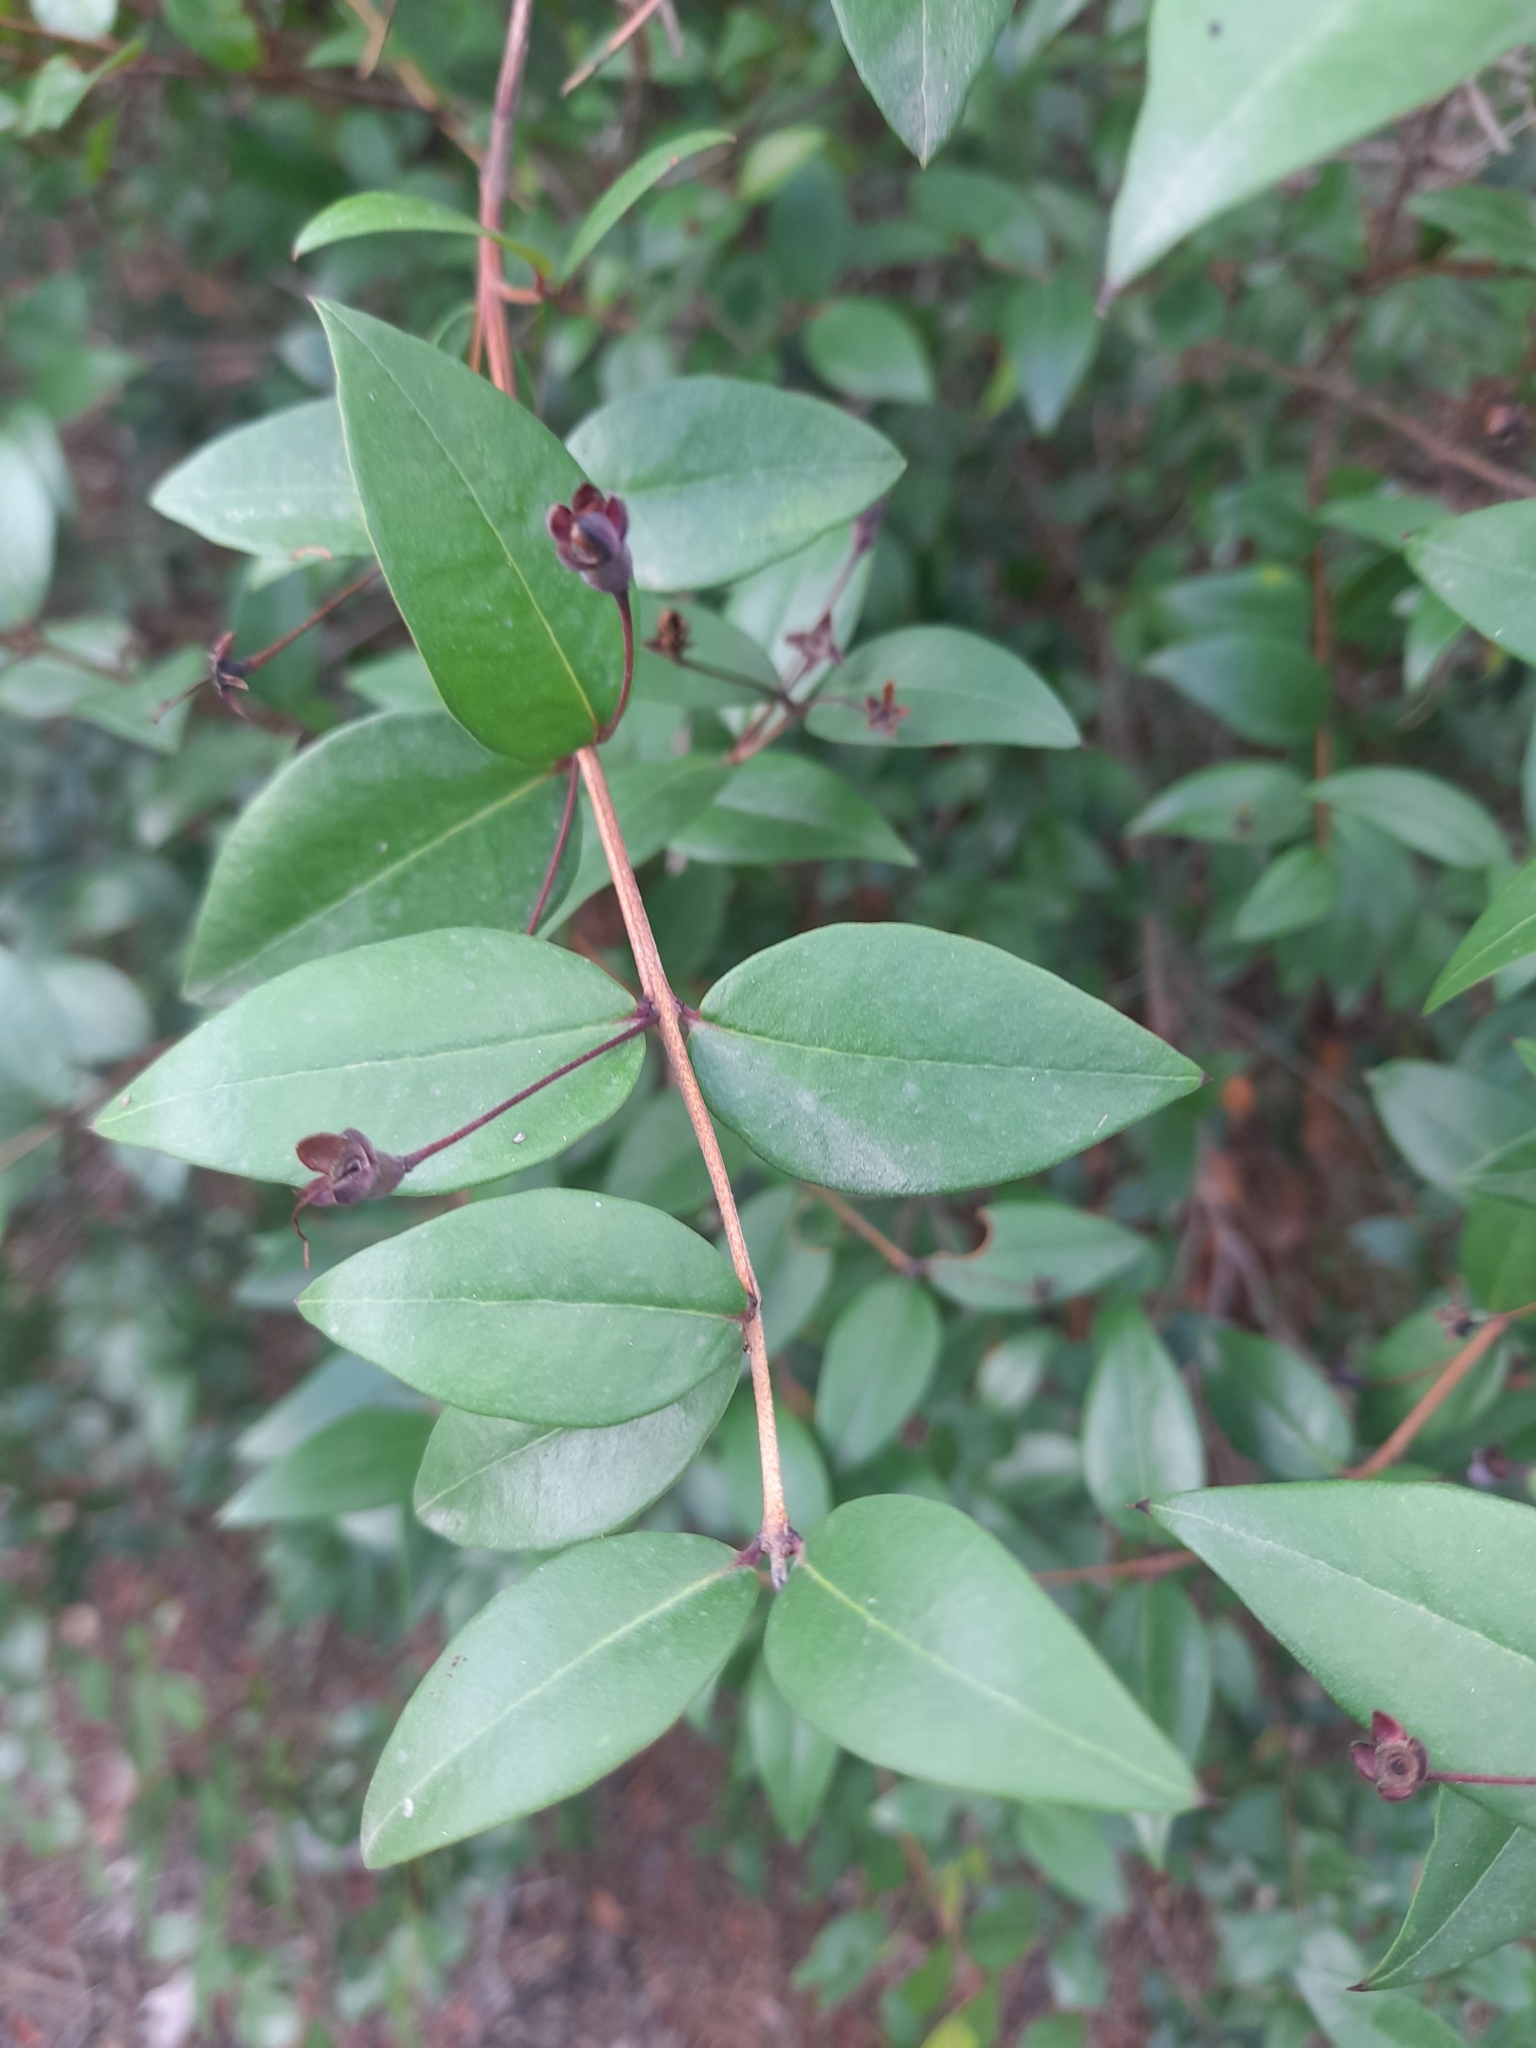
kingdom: Plantae
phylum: Tracheophyta
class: Magnoliopsida
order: Myrtales
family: Myrtaceae
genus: Myrtus
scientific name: Myrtus communis
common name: Myrtle
